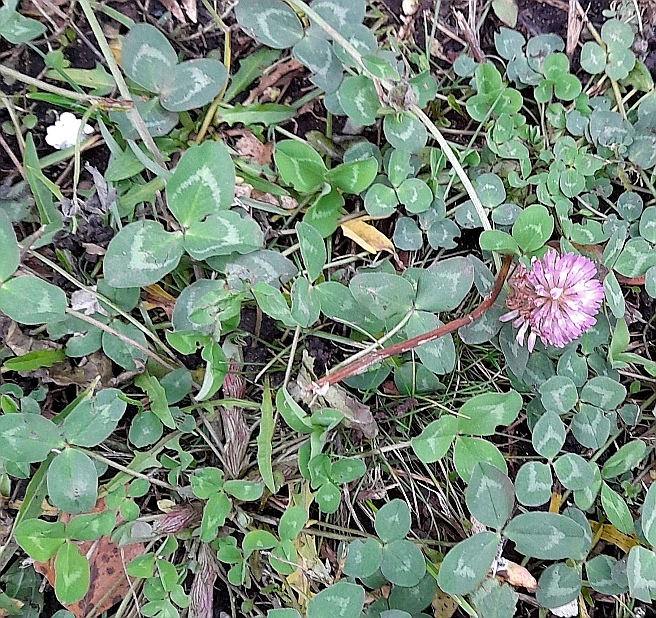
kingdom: Plantae
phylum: Tracheophyta
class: Magnoliopsida
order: Fabales
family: Fabaceae
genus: Trifolium
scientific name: Trifolium pratense
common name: Red clover
